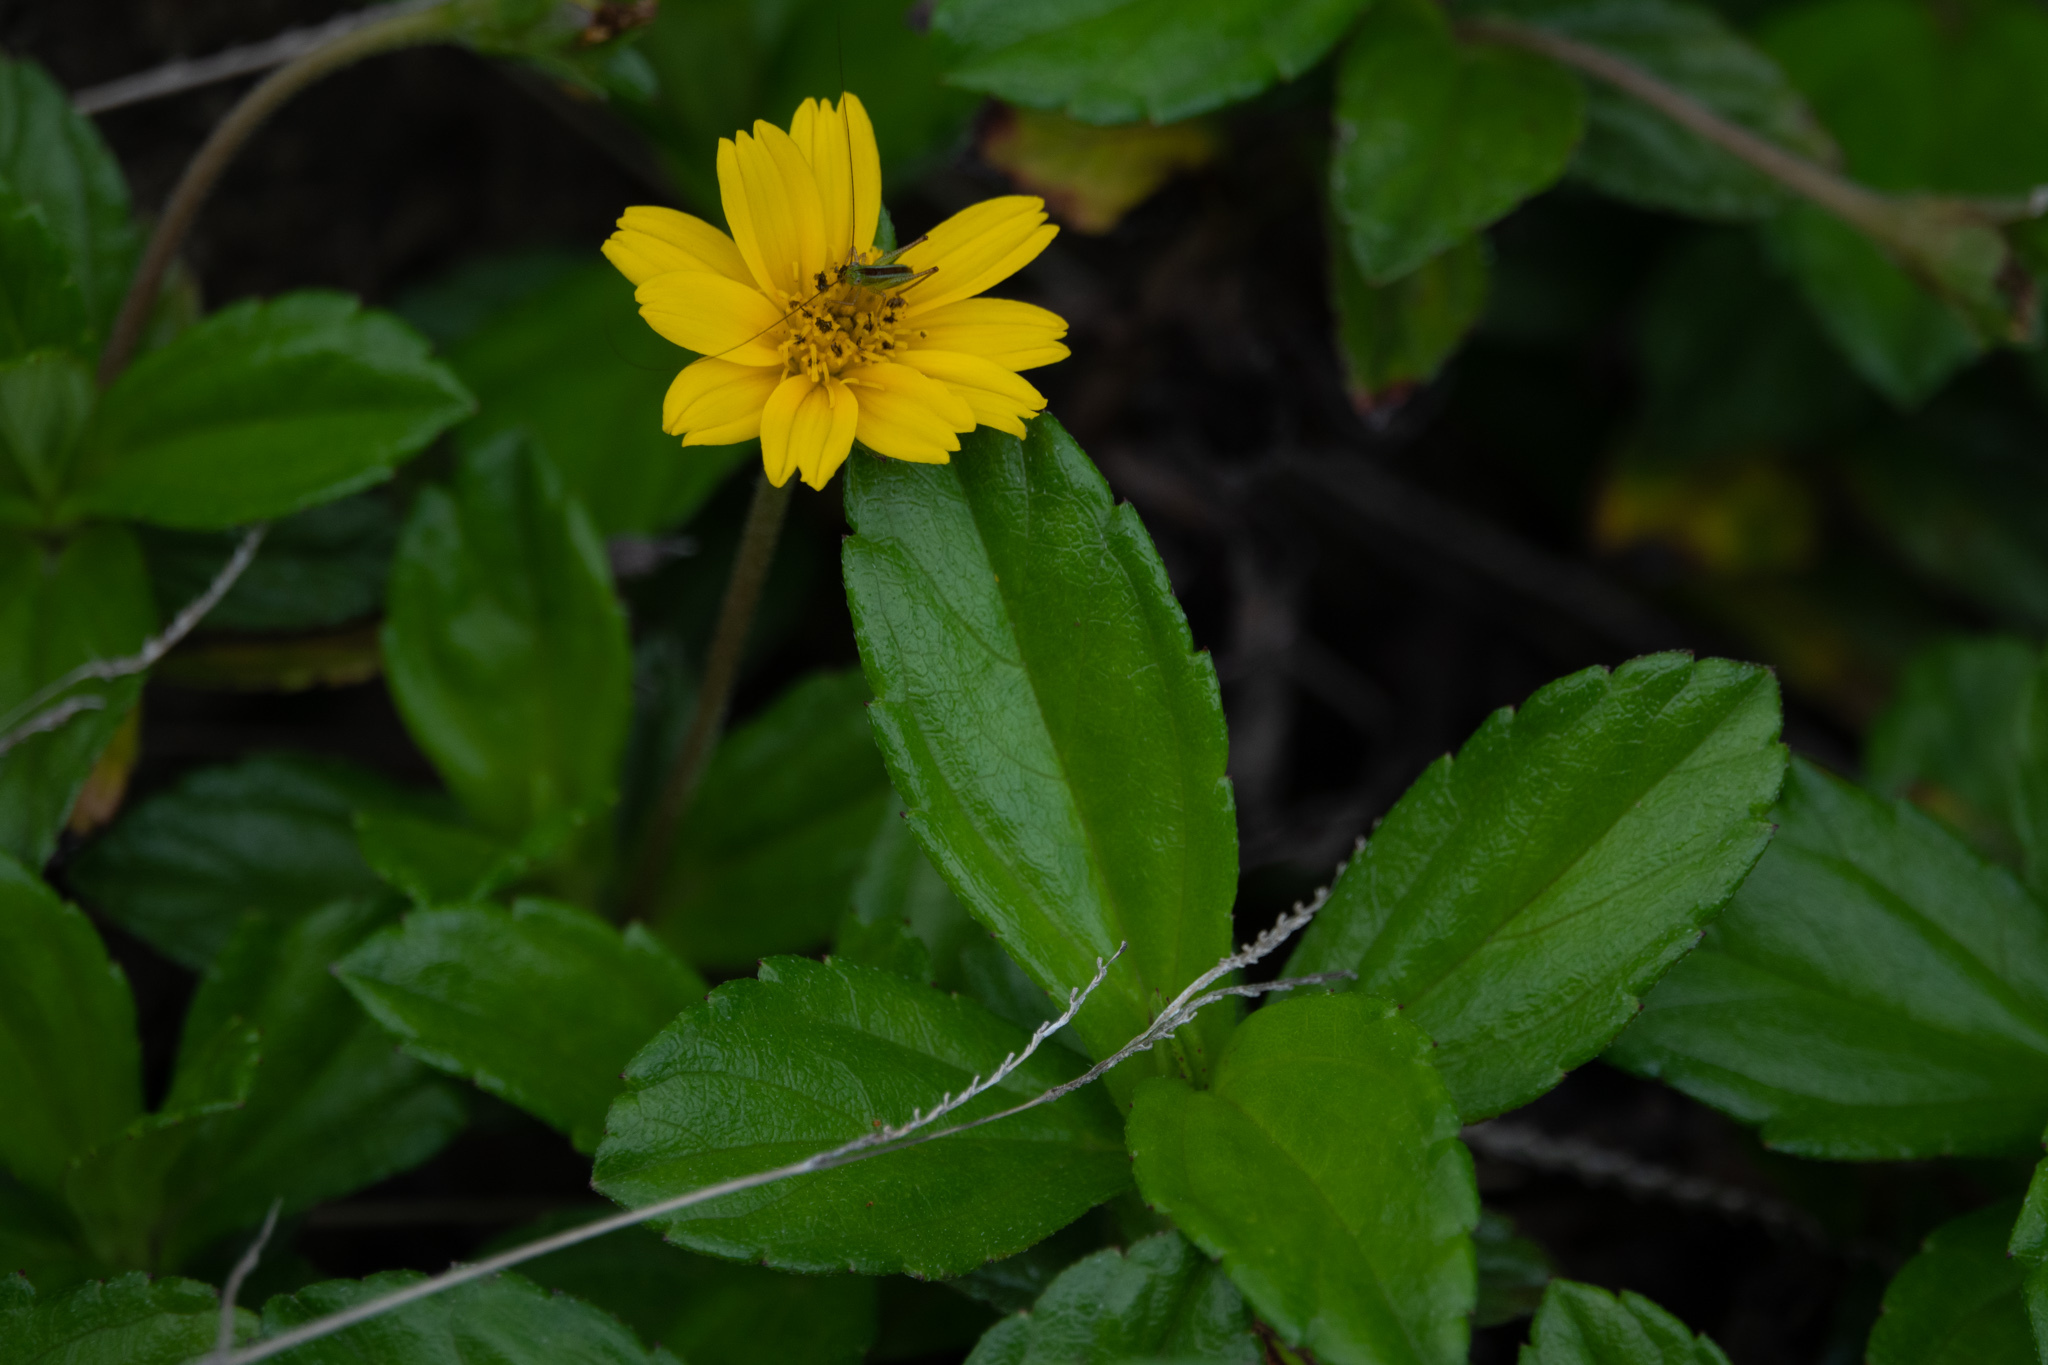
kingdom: Plantae
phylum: Tracheophyta
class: Magnoliopsida
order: Asterales
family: Asteraceae
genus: Sphagneticola
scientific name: Sphagneticola trilobata
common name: Bay biscayne creeping-oxeye
